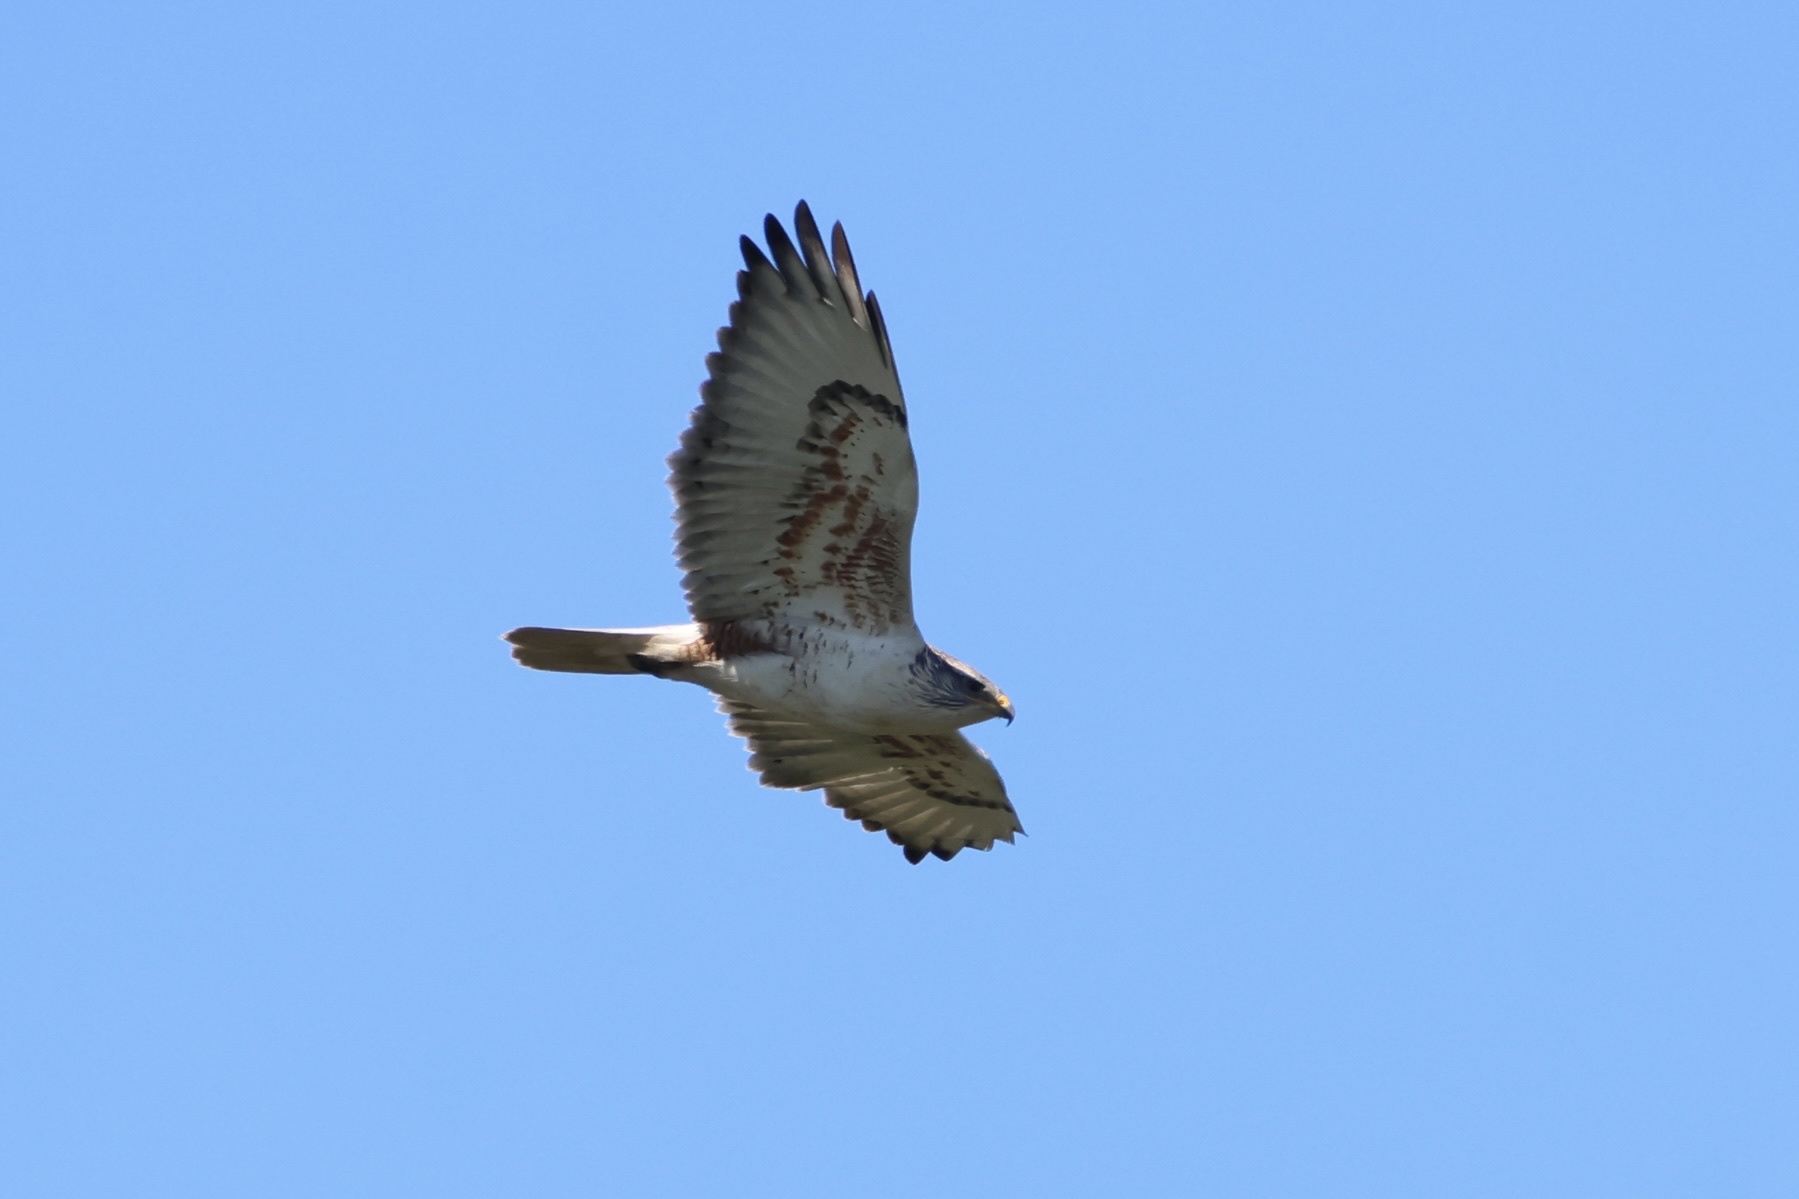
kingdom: Animalia
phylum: Chordata
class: Aves
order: Accipitriformes
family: Accipitridae
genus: Buteo
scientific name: Buteo regalis
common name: Ferruginous hawk
